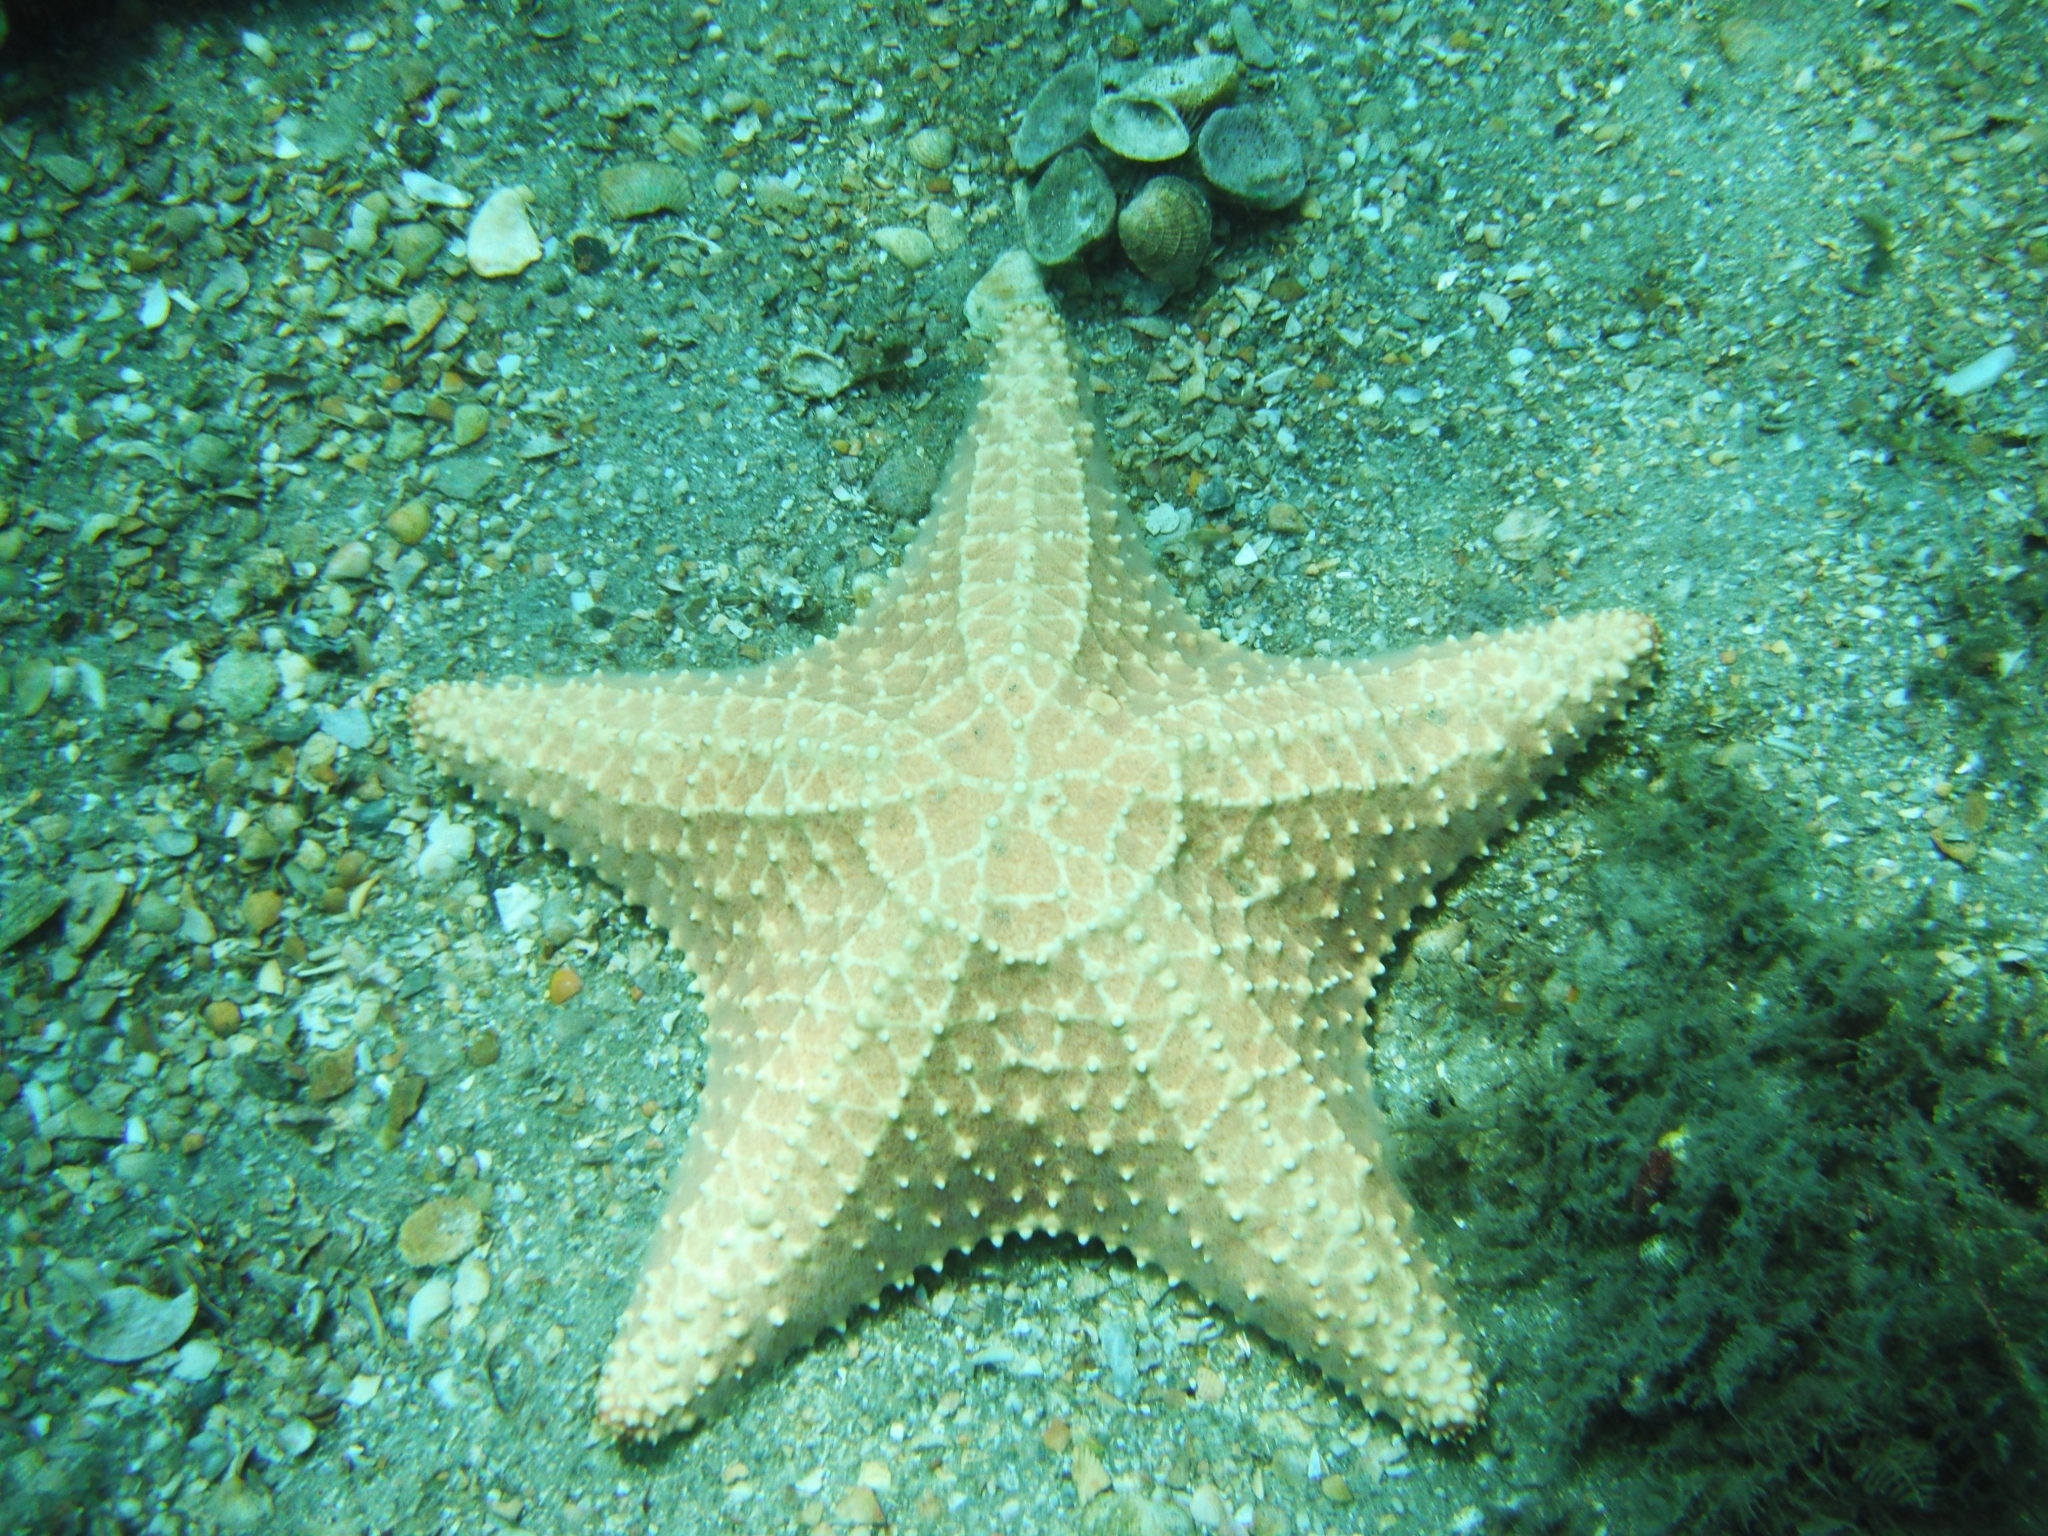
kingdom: Animalia
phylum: Echinodermata
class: Asteroidea
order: Valvatida
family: Oreasteridae
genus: Oreaster
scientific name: Oreaster reticulatus
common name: Cushion sea star
